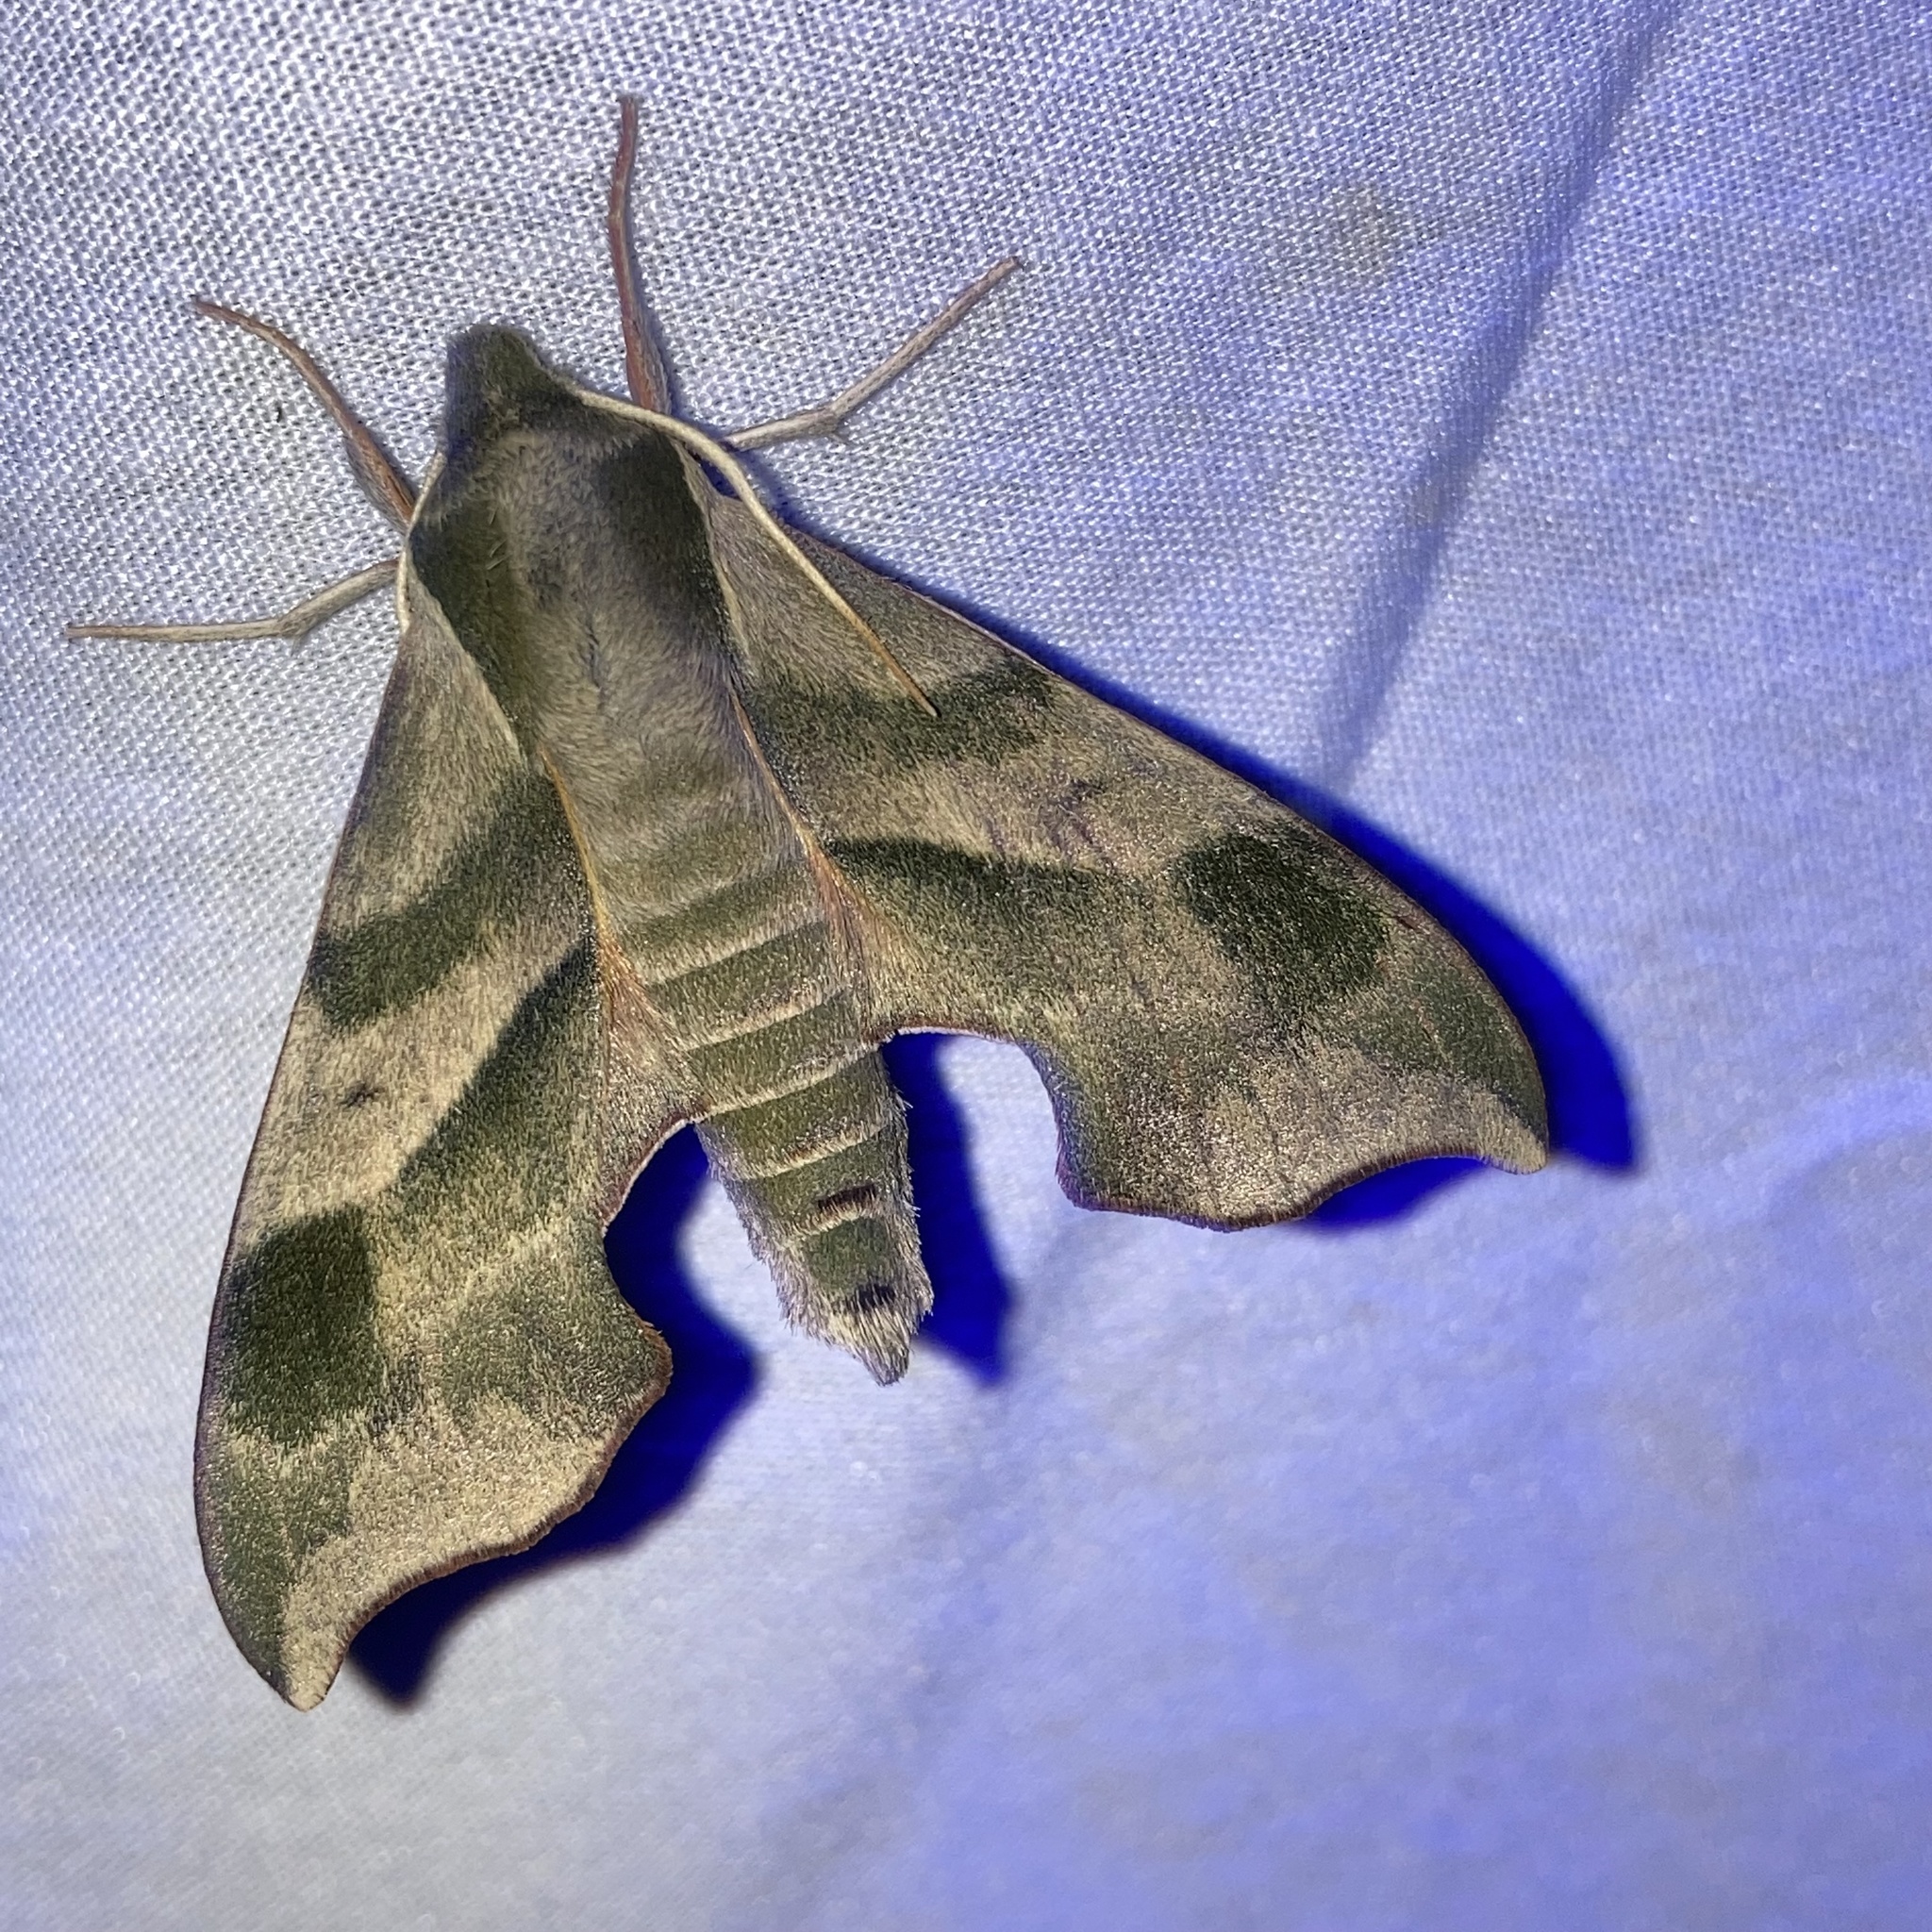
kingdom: Animalia
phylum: Arthropoda
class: Insecta
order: Lepidoptera
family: Sphingidae
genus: Darapsa
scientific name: Darapsa myron
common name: Hog sphinx
